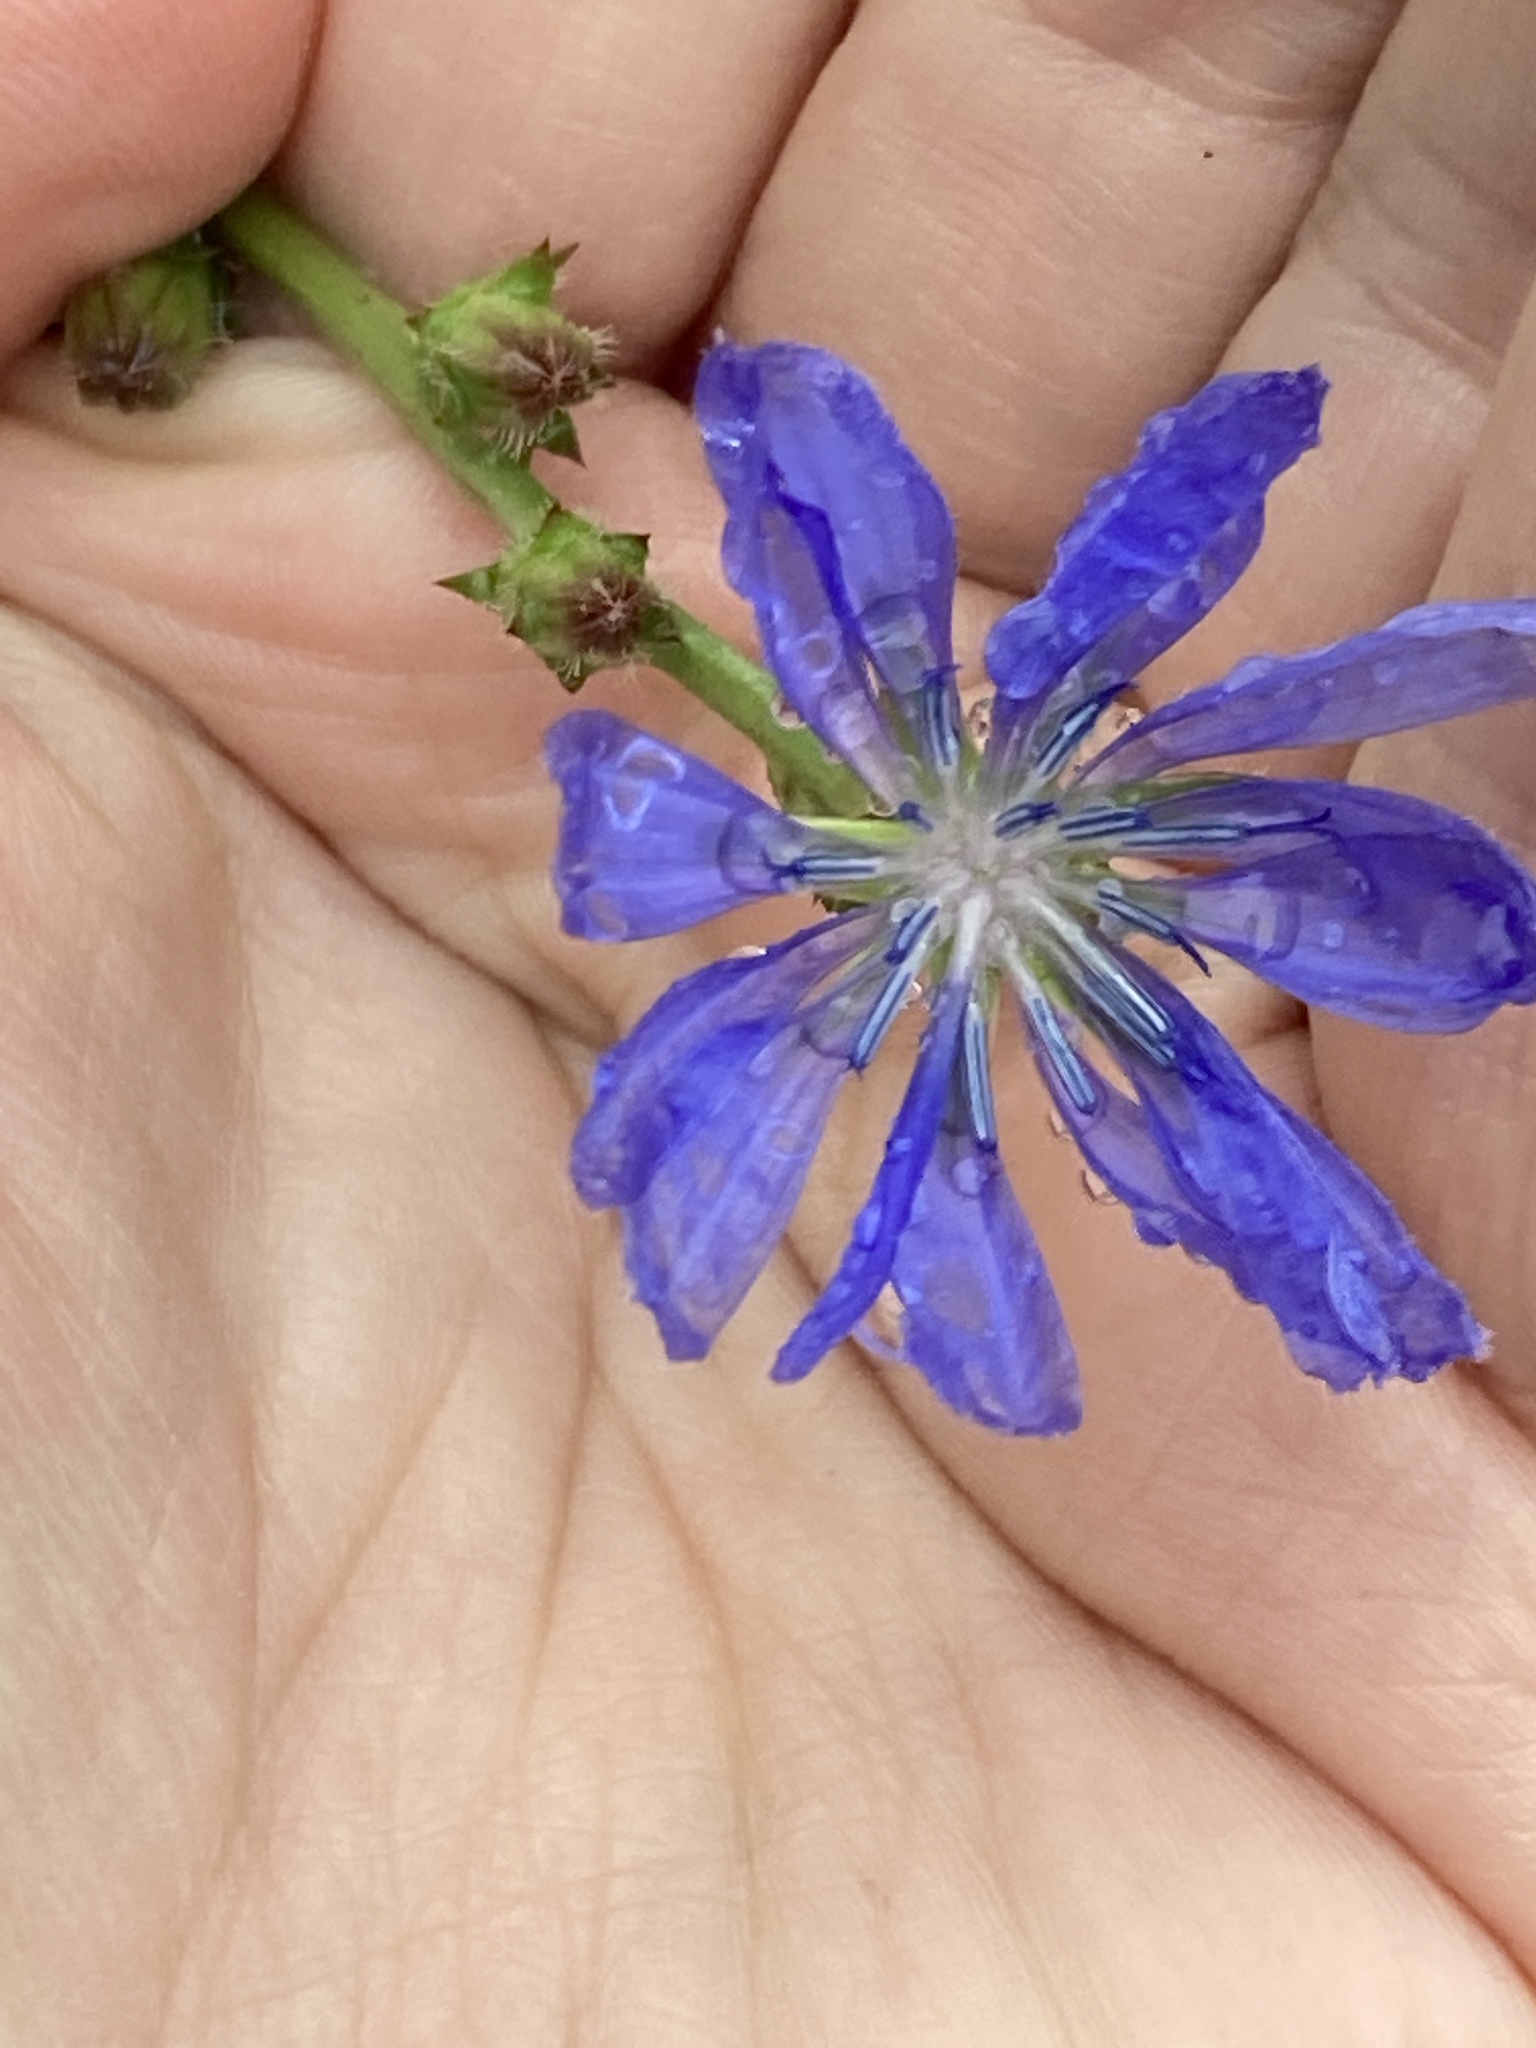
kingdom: Plantae
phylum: Tracheophyta
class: Magnoliopsida
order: Asterales
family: Asteraceae
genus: Cichorium
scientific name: Cichorium intybus
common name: Chicory
